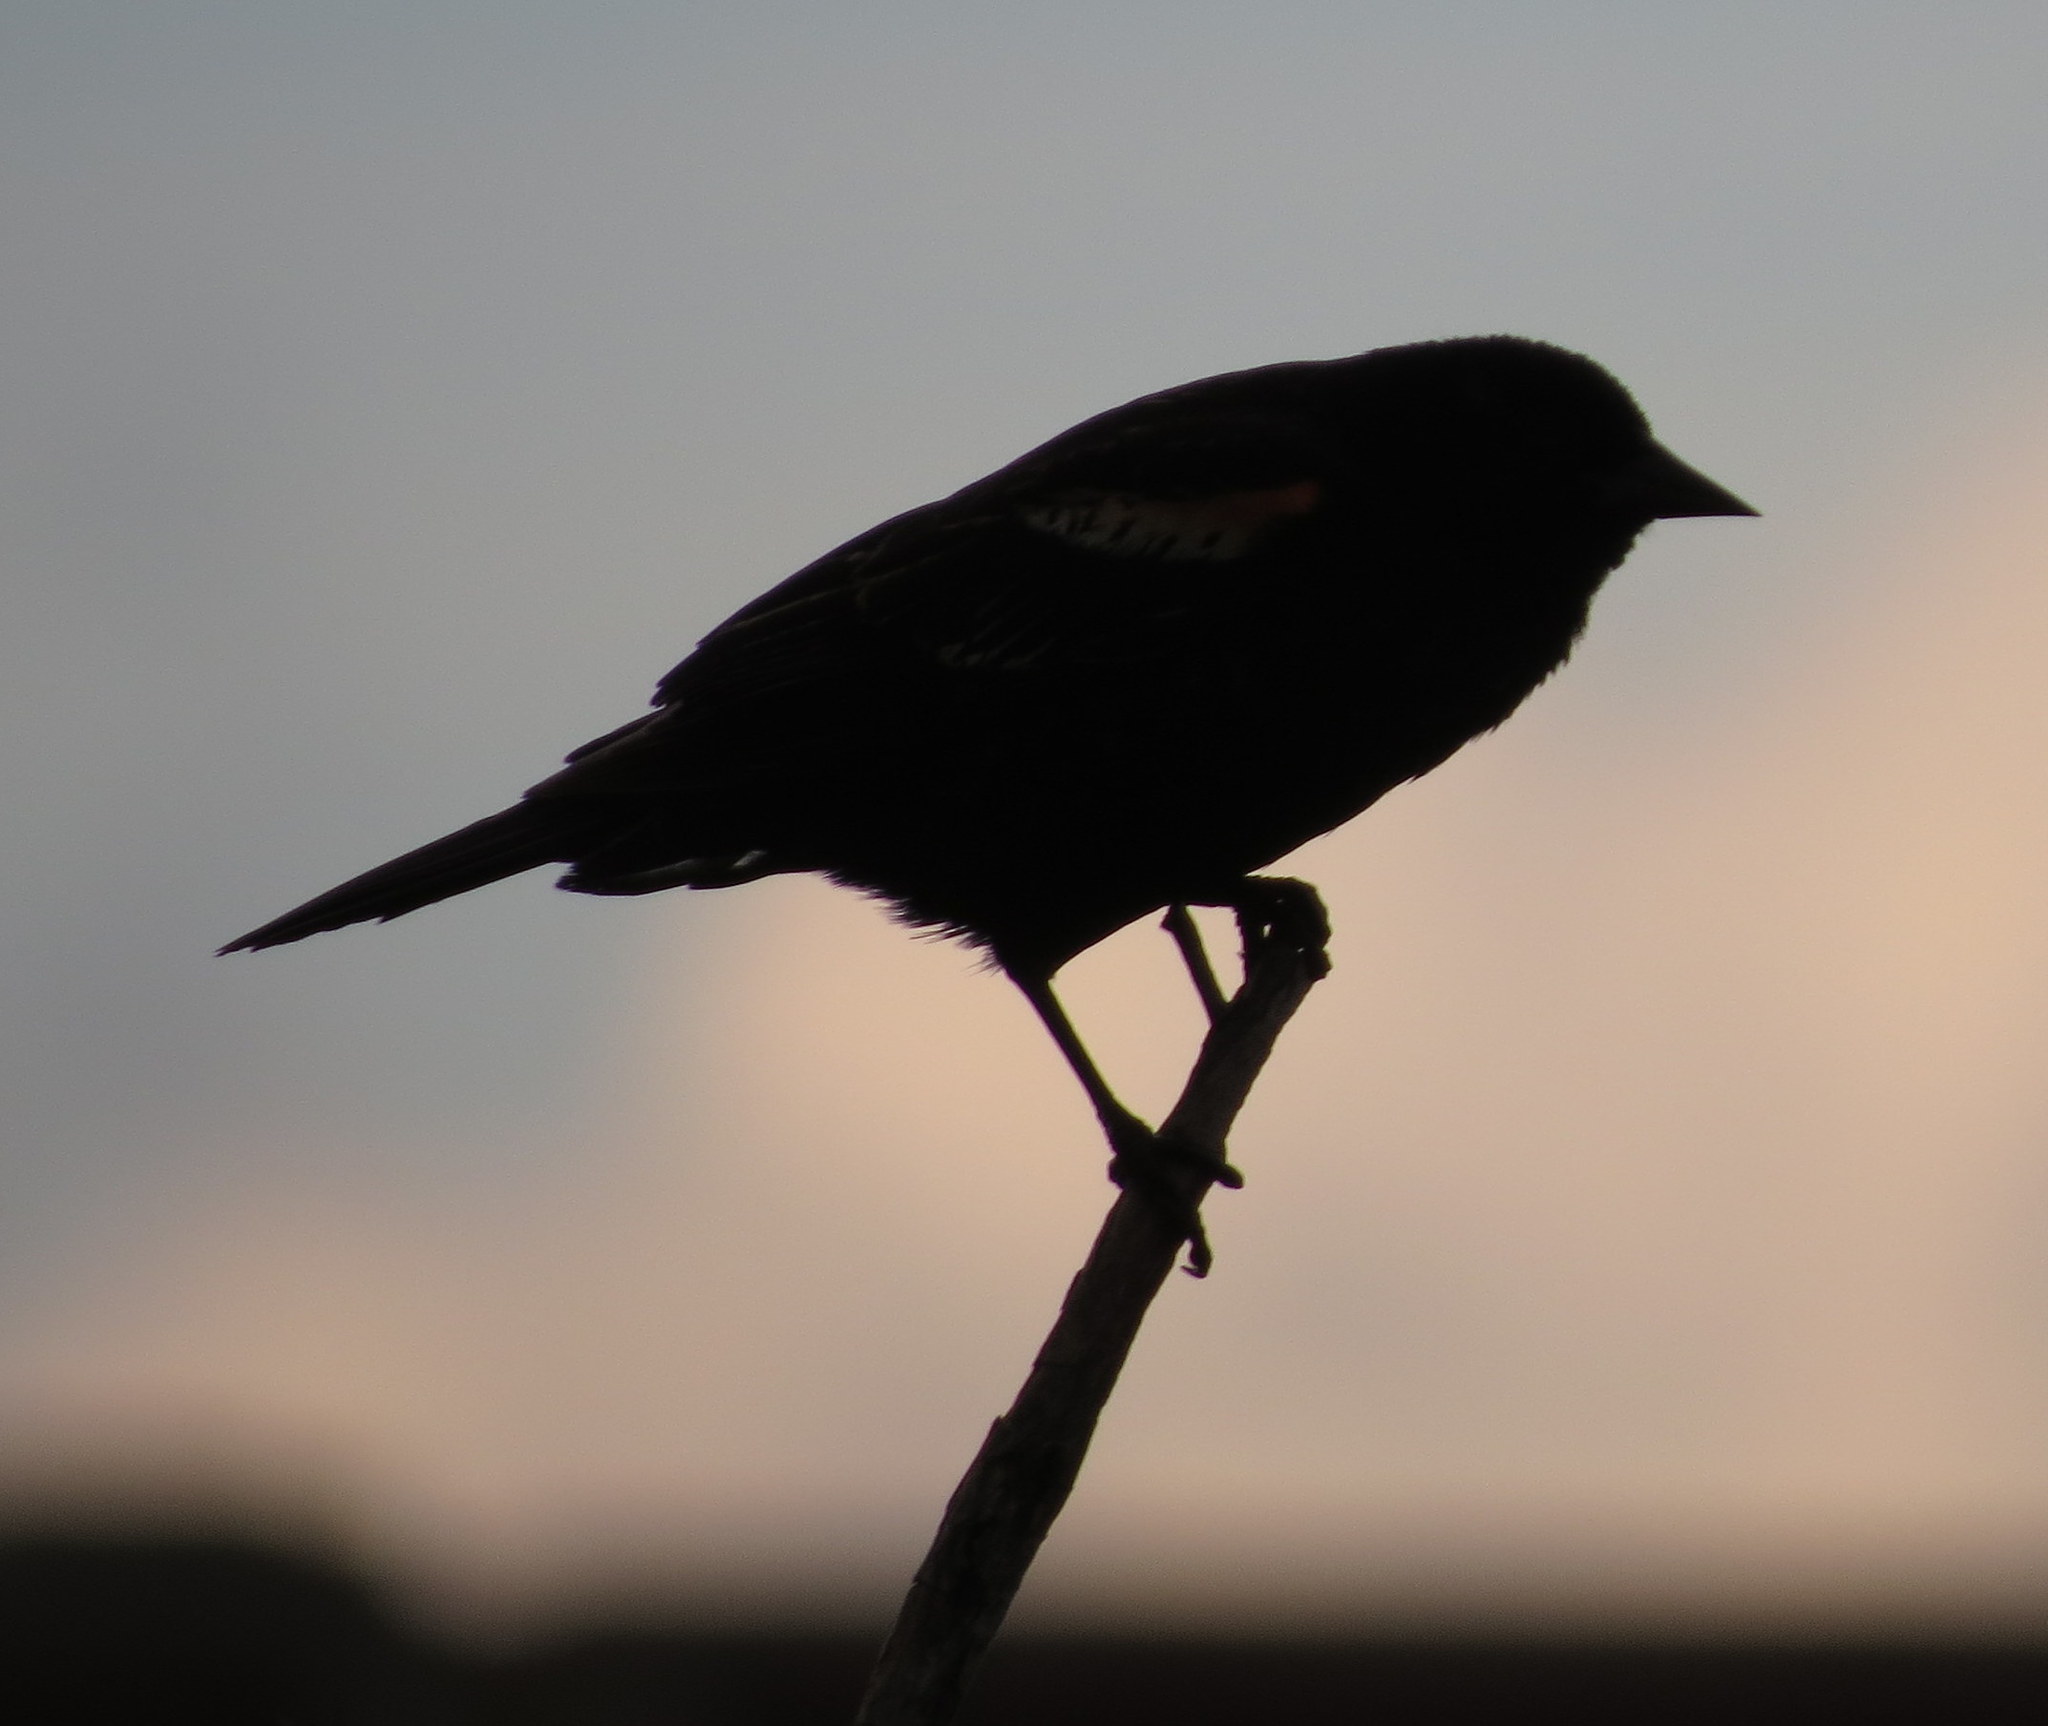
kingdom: Animalia
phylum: Chordata
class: Aves
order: Passeriformes
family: Icteridae
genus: Agelaius
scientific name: Agelaius phoeniceus
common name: Red-winged blackbird
